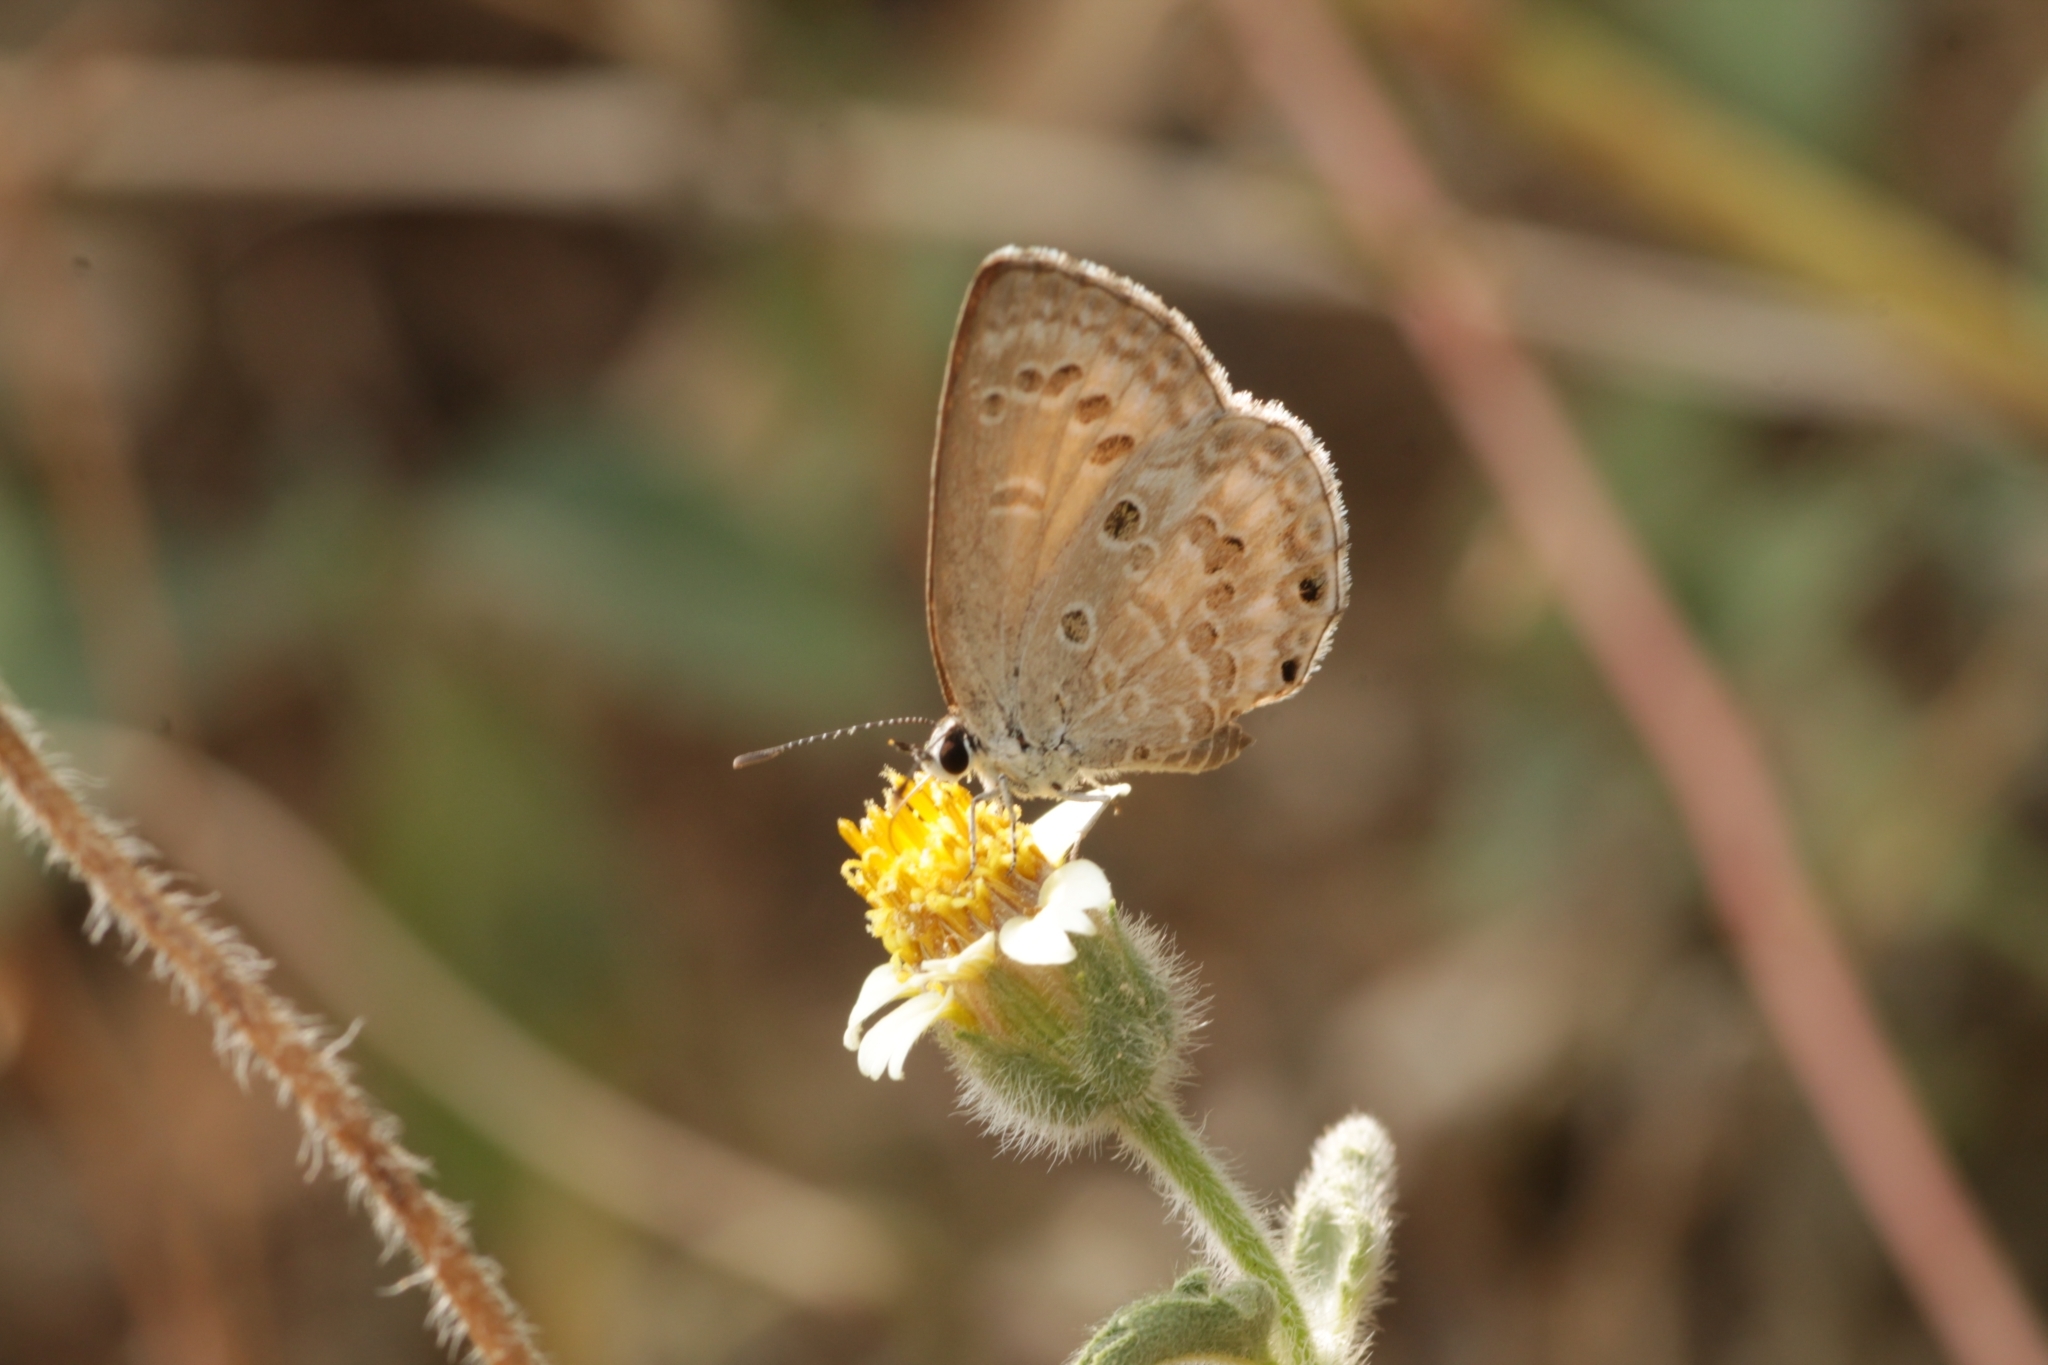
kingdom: Animalia
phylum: Arthropoda
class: Insecta
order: Lepidoptera
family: Lycaenidae
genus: Chilades
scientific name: Chilades laius
